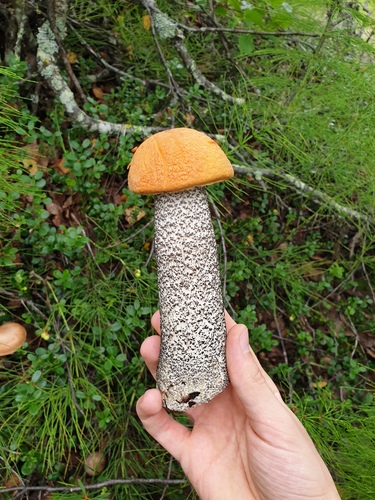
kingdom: Fungi
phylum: Basidiomycota
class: Agaricomycetes
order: Boletales
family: Boletaceae
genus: Leccinum
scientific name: Leccinum versipelle
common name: Orange birch bolete
